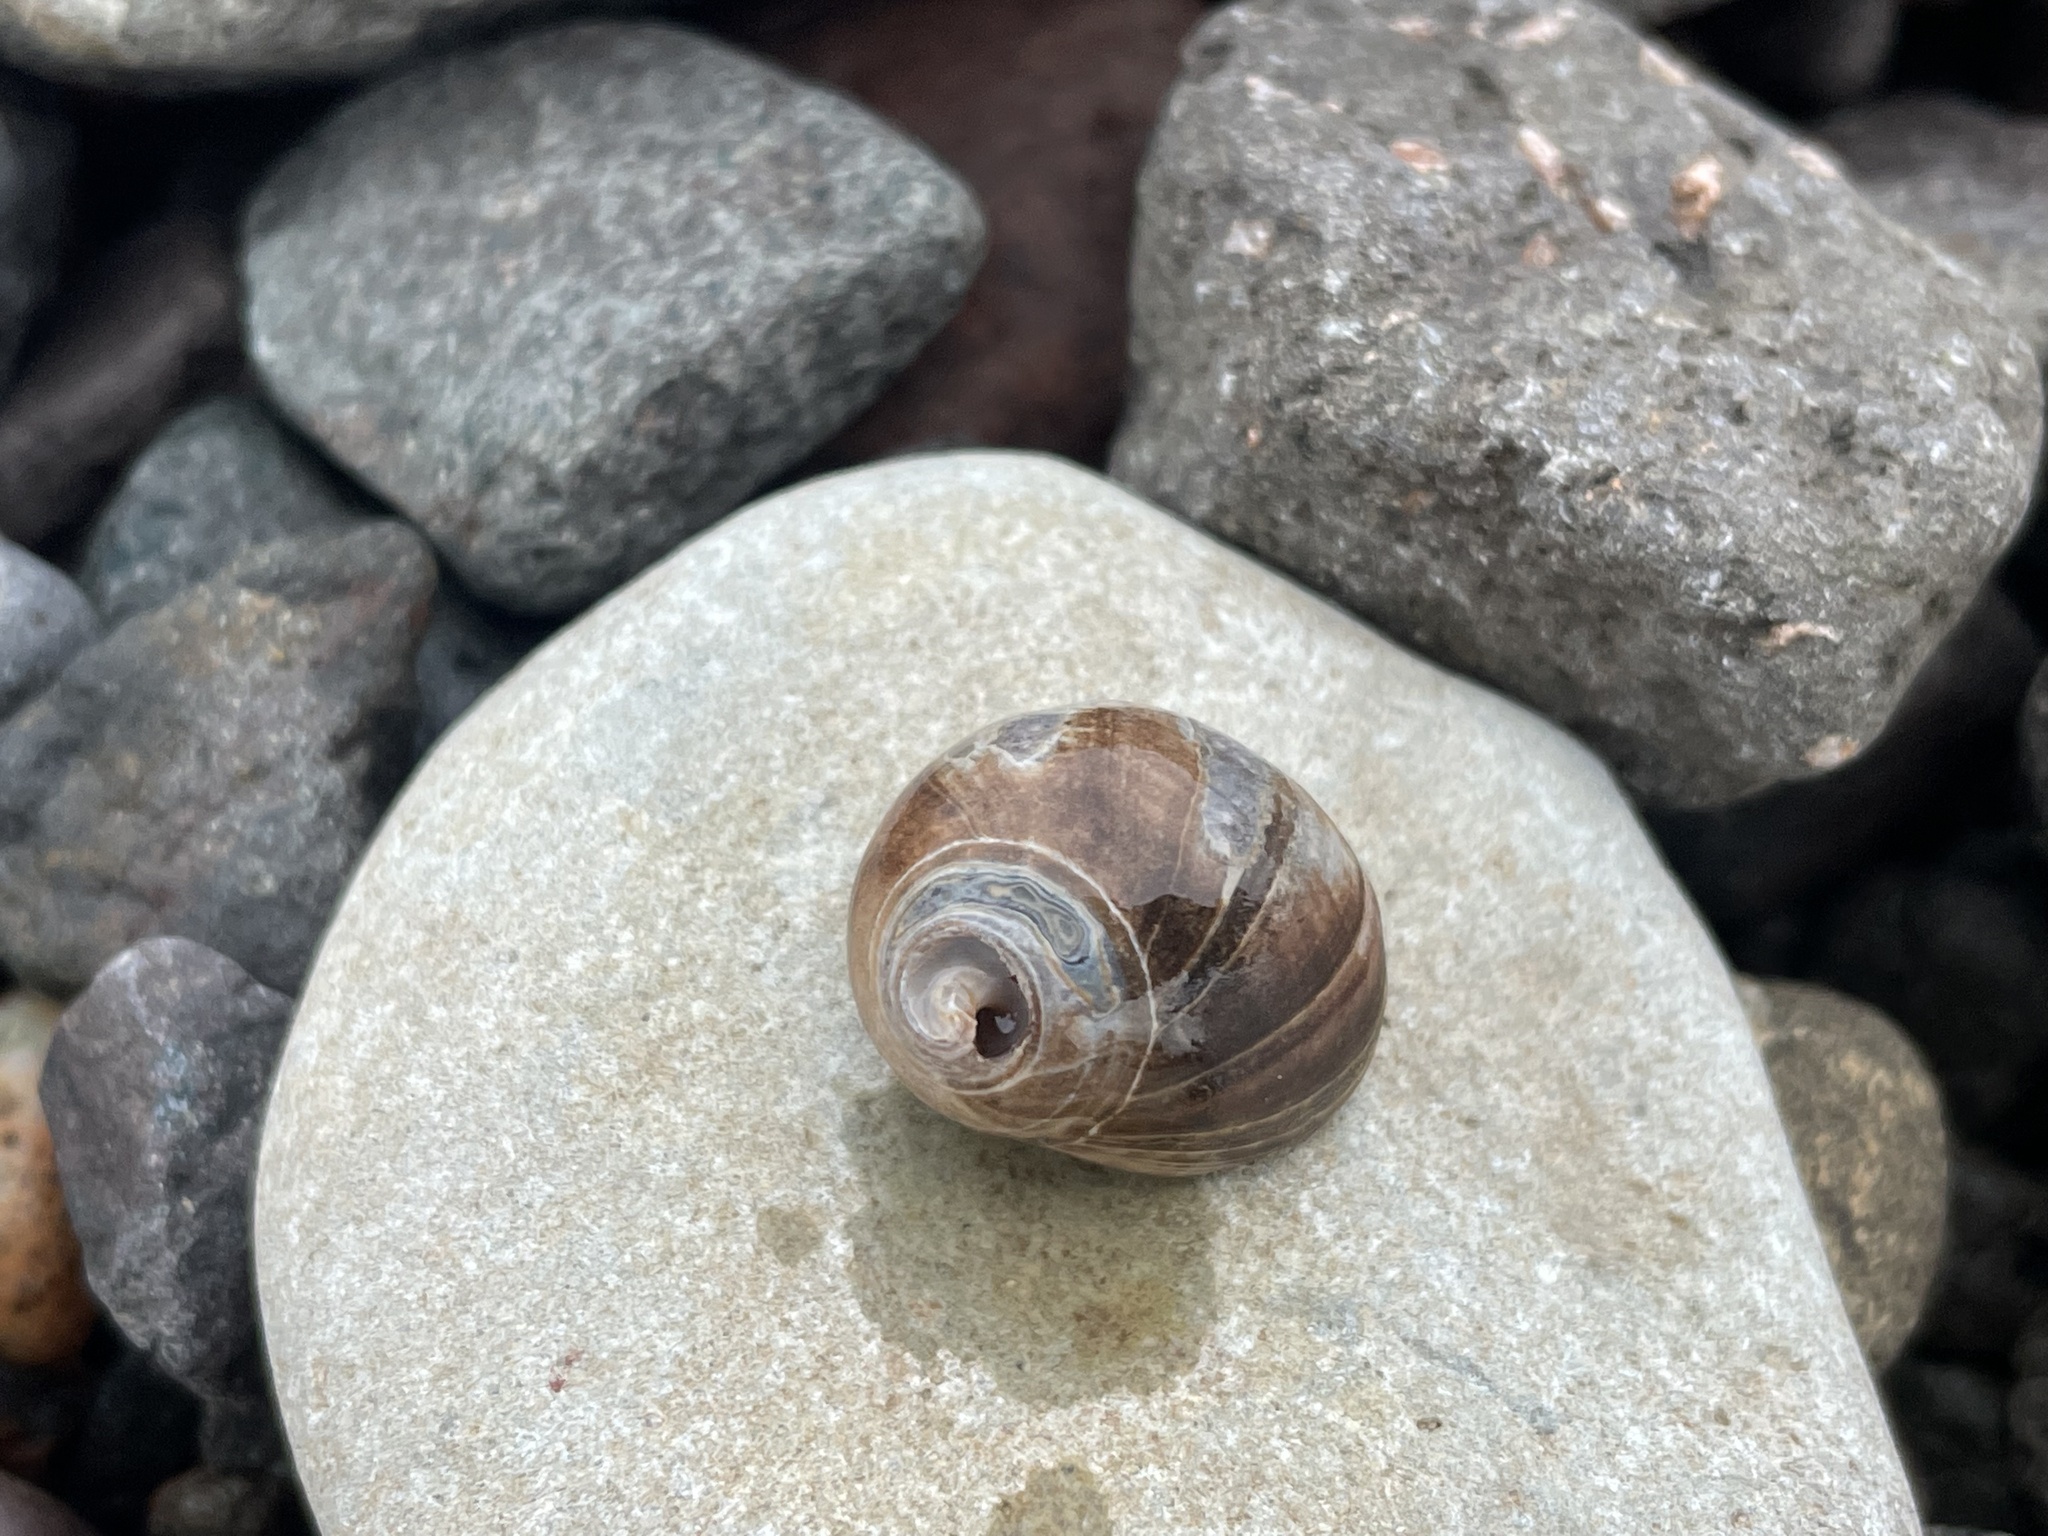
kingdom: Animalia
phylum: Mollusca
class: Gastropoda
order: Littorinimorpha
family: Littorinidae
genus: Littorina
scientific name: Littorina littorea
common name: Common periwinkle
